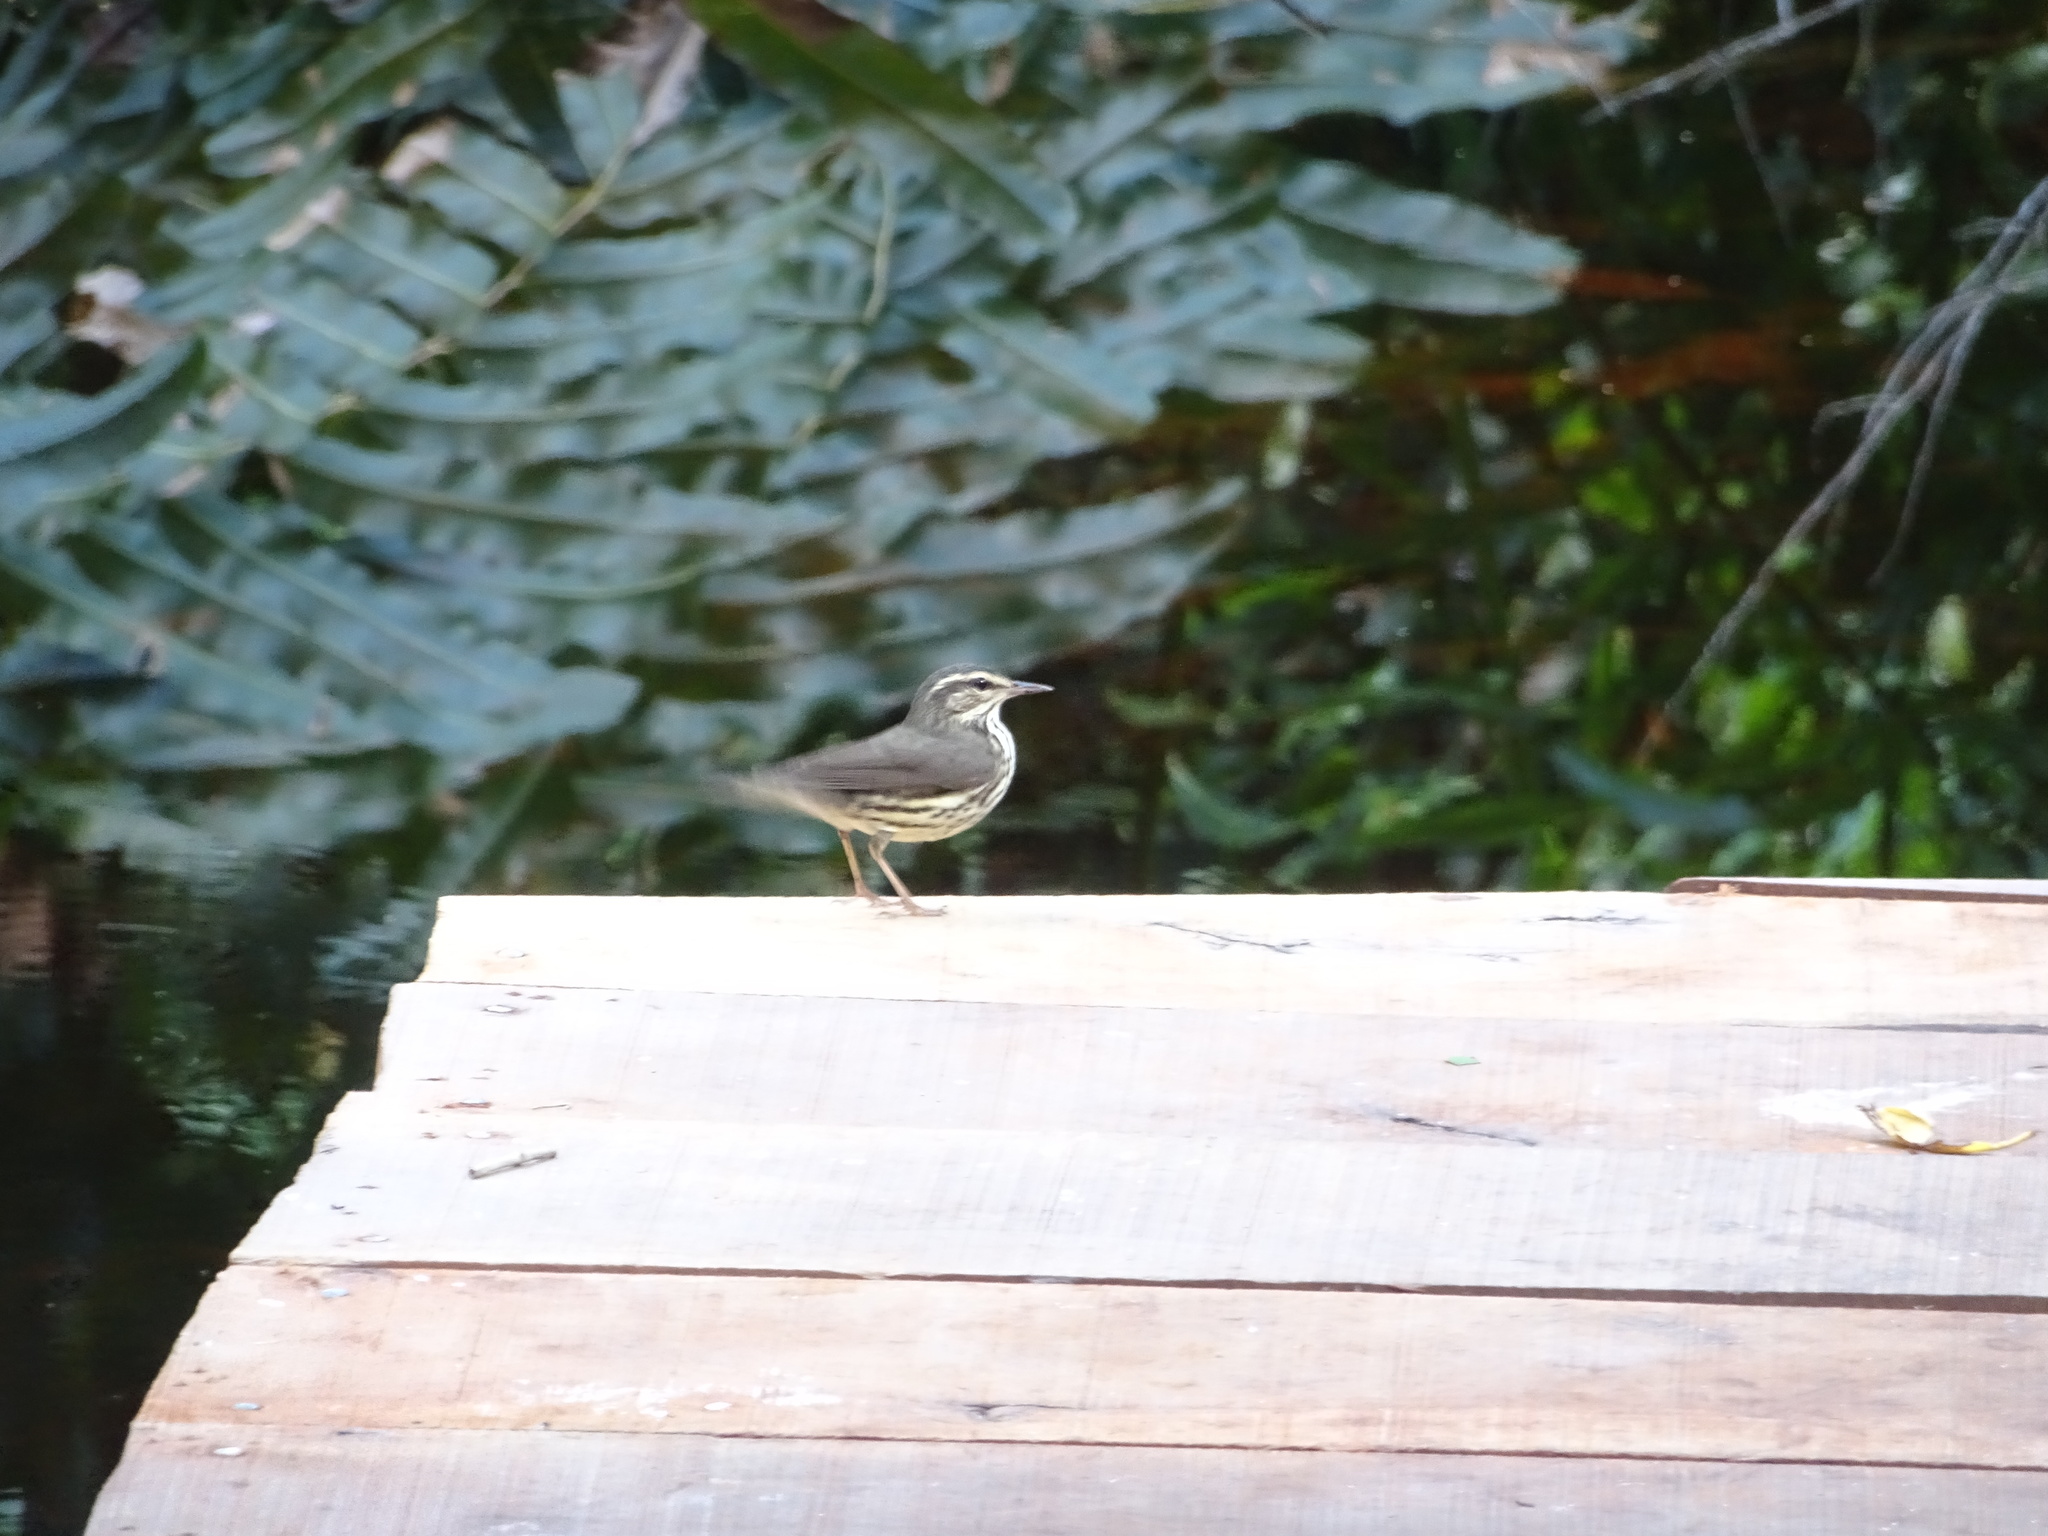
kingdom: Animalia
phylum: Chordata
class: Aves
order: Passeriformes
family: Parulidae
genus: Parkesia
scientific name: Parkesia motacilla
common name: Louisiana waterthrush
